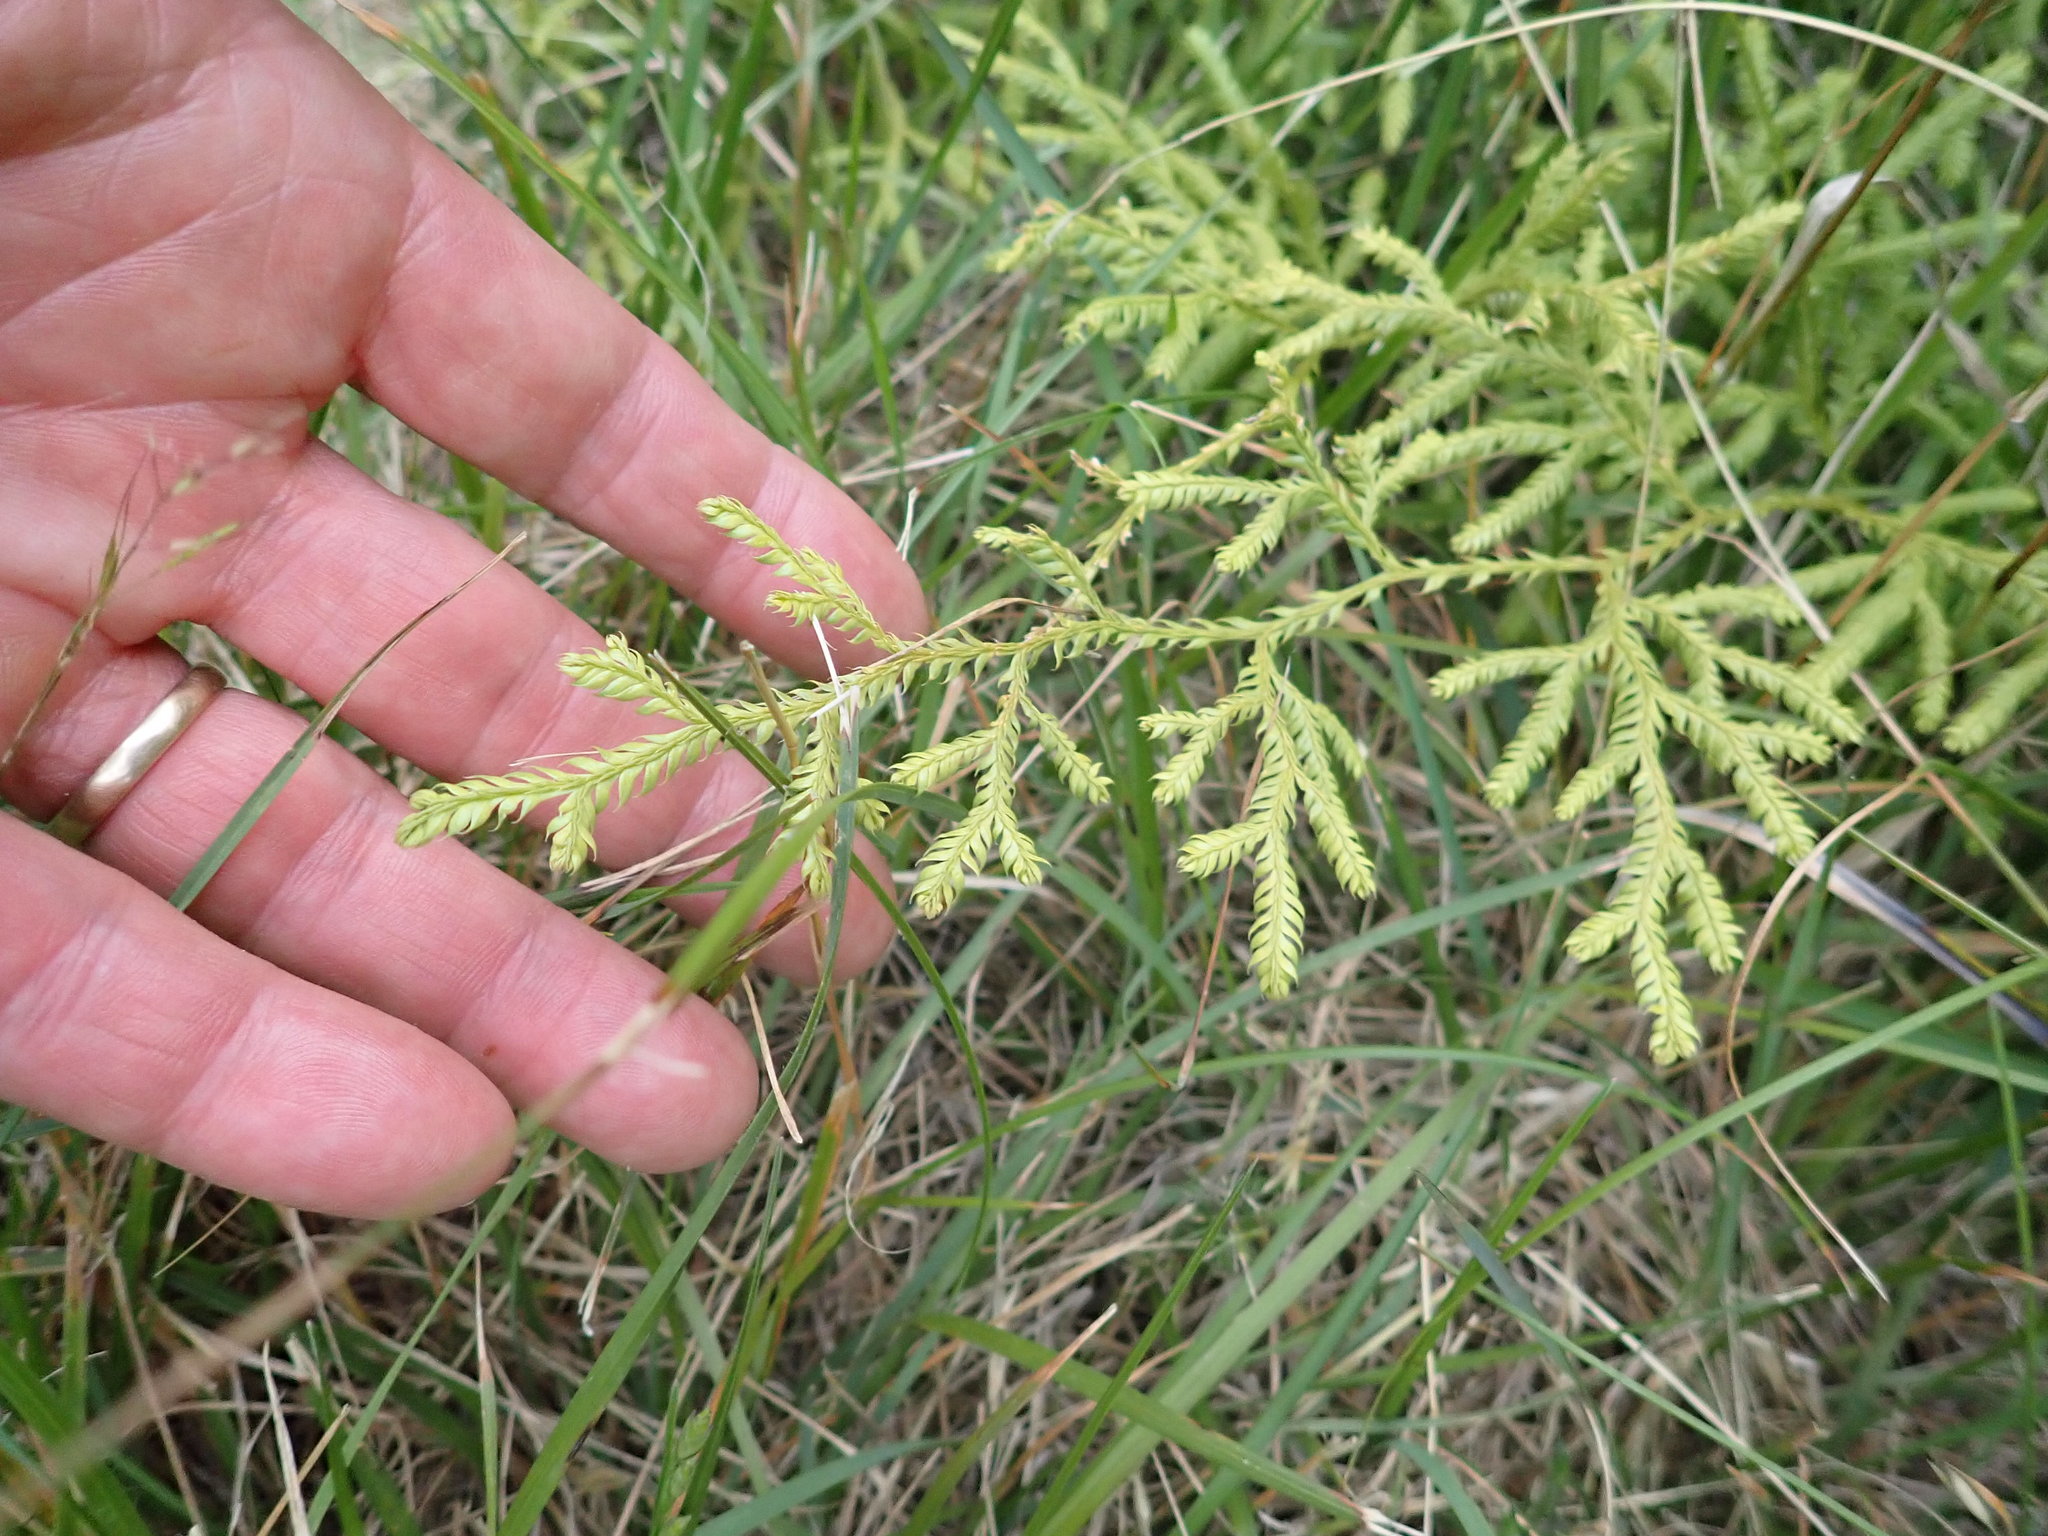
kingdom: Plantae
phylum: Tracheophyta
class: Lycopodiopsida
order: Lycopodiales
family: Lycopodiaceae
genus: Lycopodium
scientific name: Lycopodium volubile
